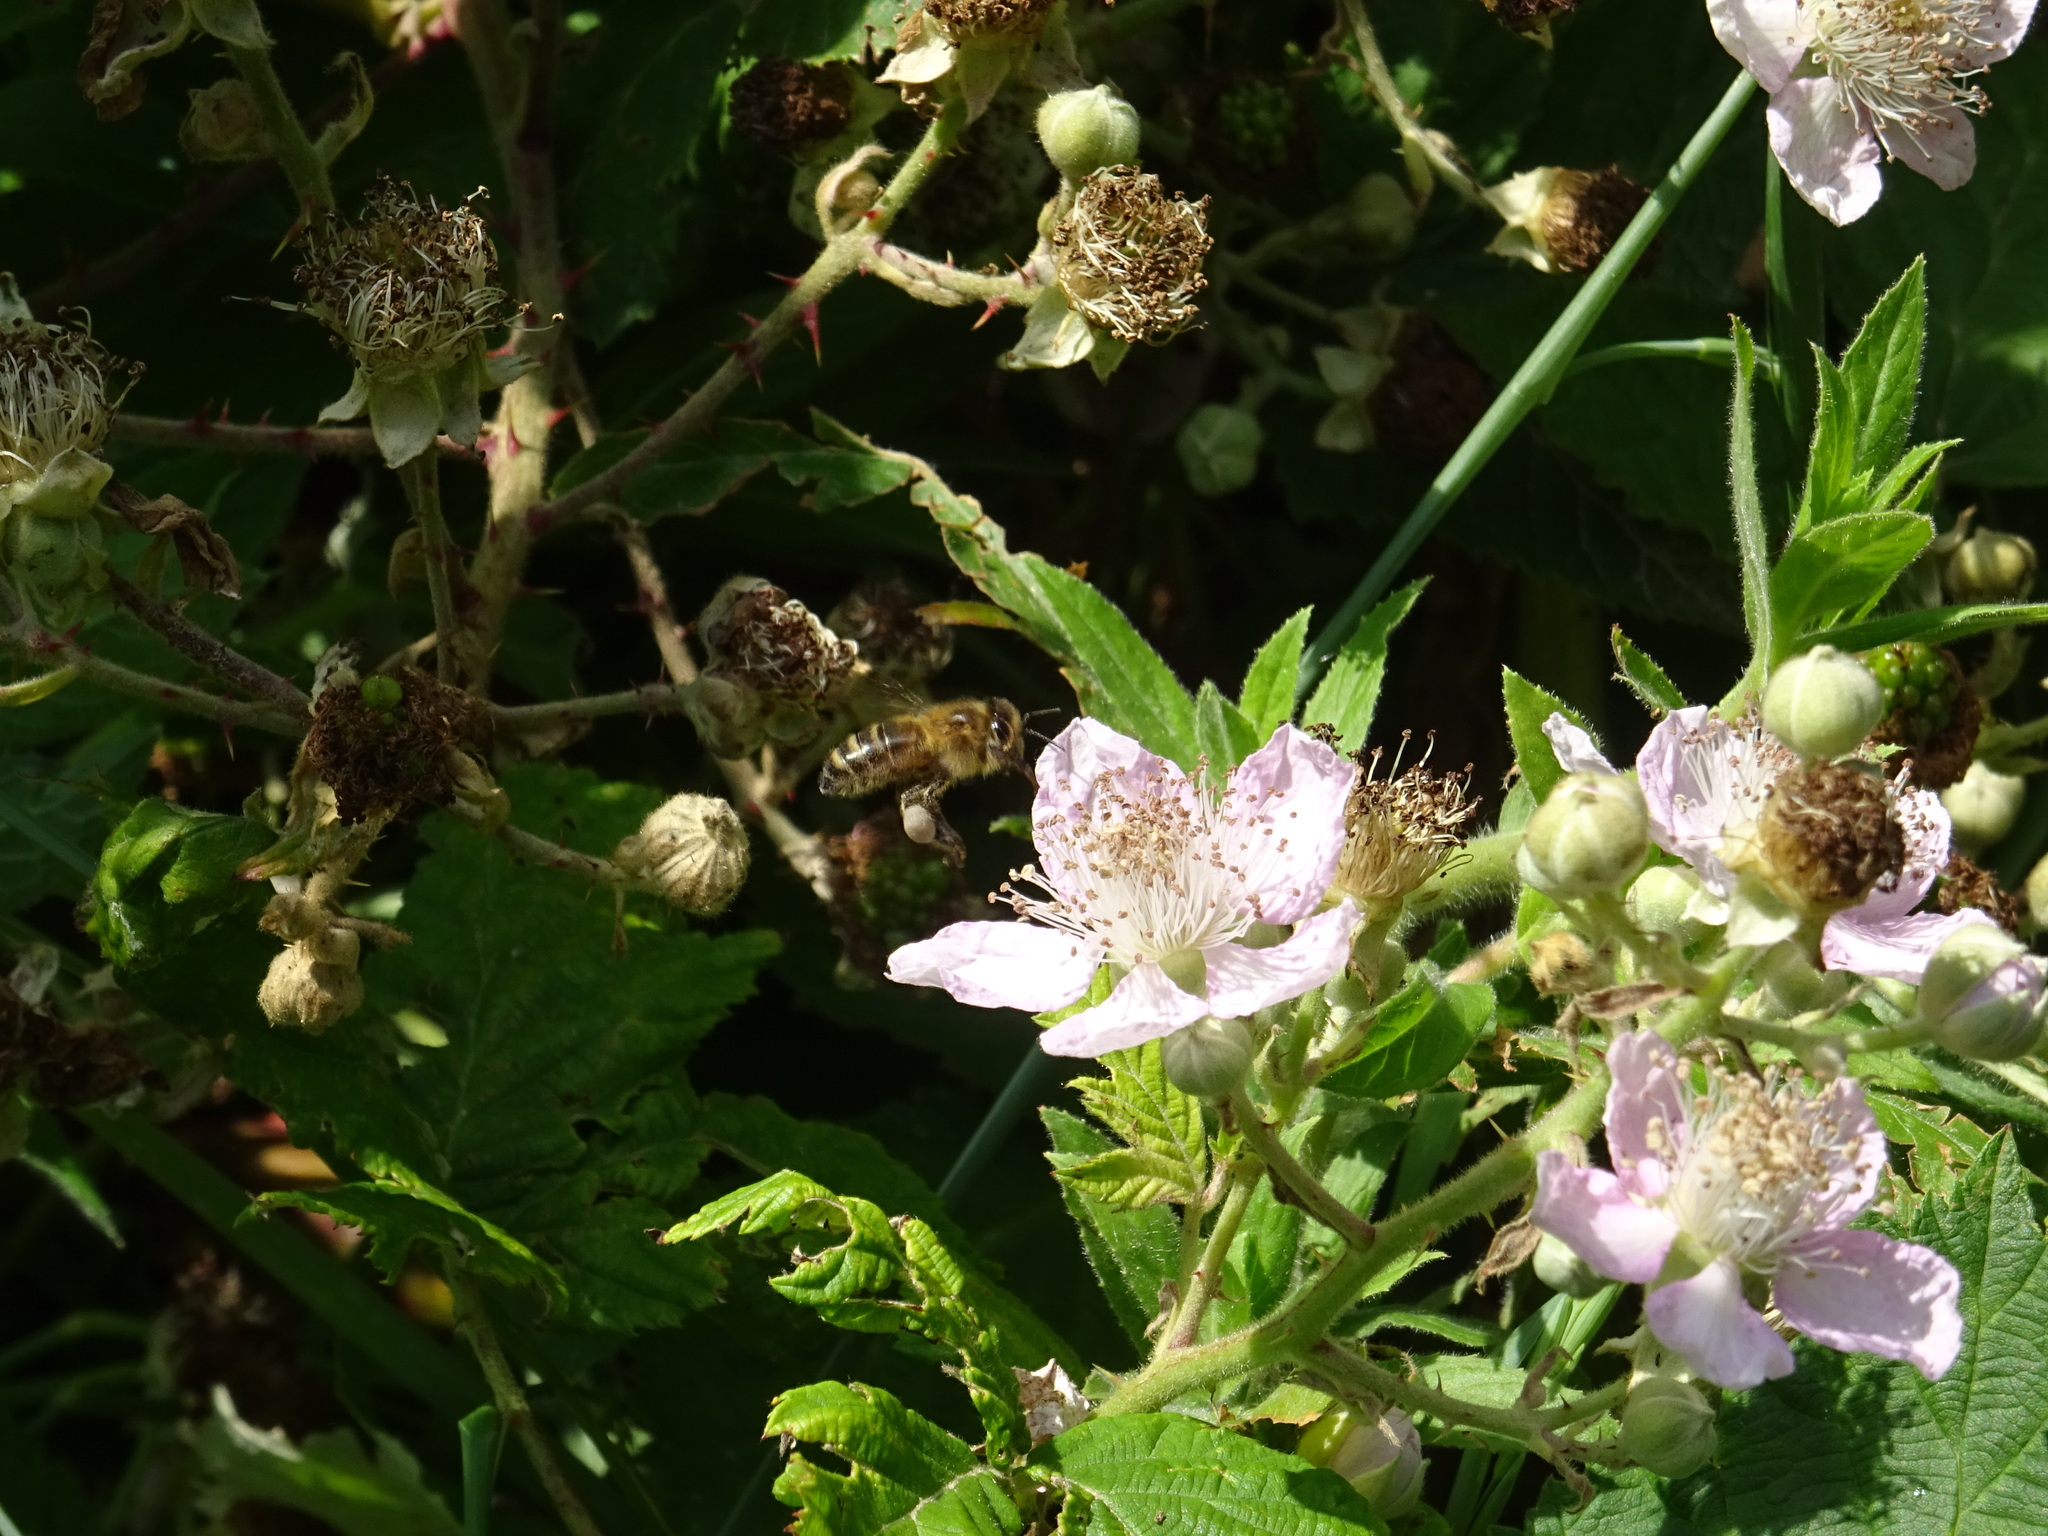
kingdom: Animalia
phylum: Arthropoda
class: Insecta
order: Hymenoptera
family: Apidae
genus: Apis
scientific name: Apis mellifera
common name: Honey bee
